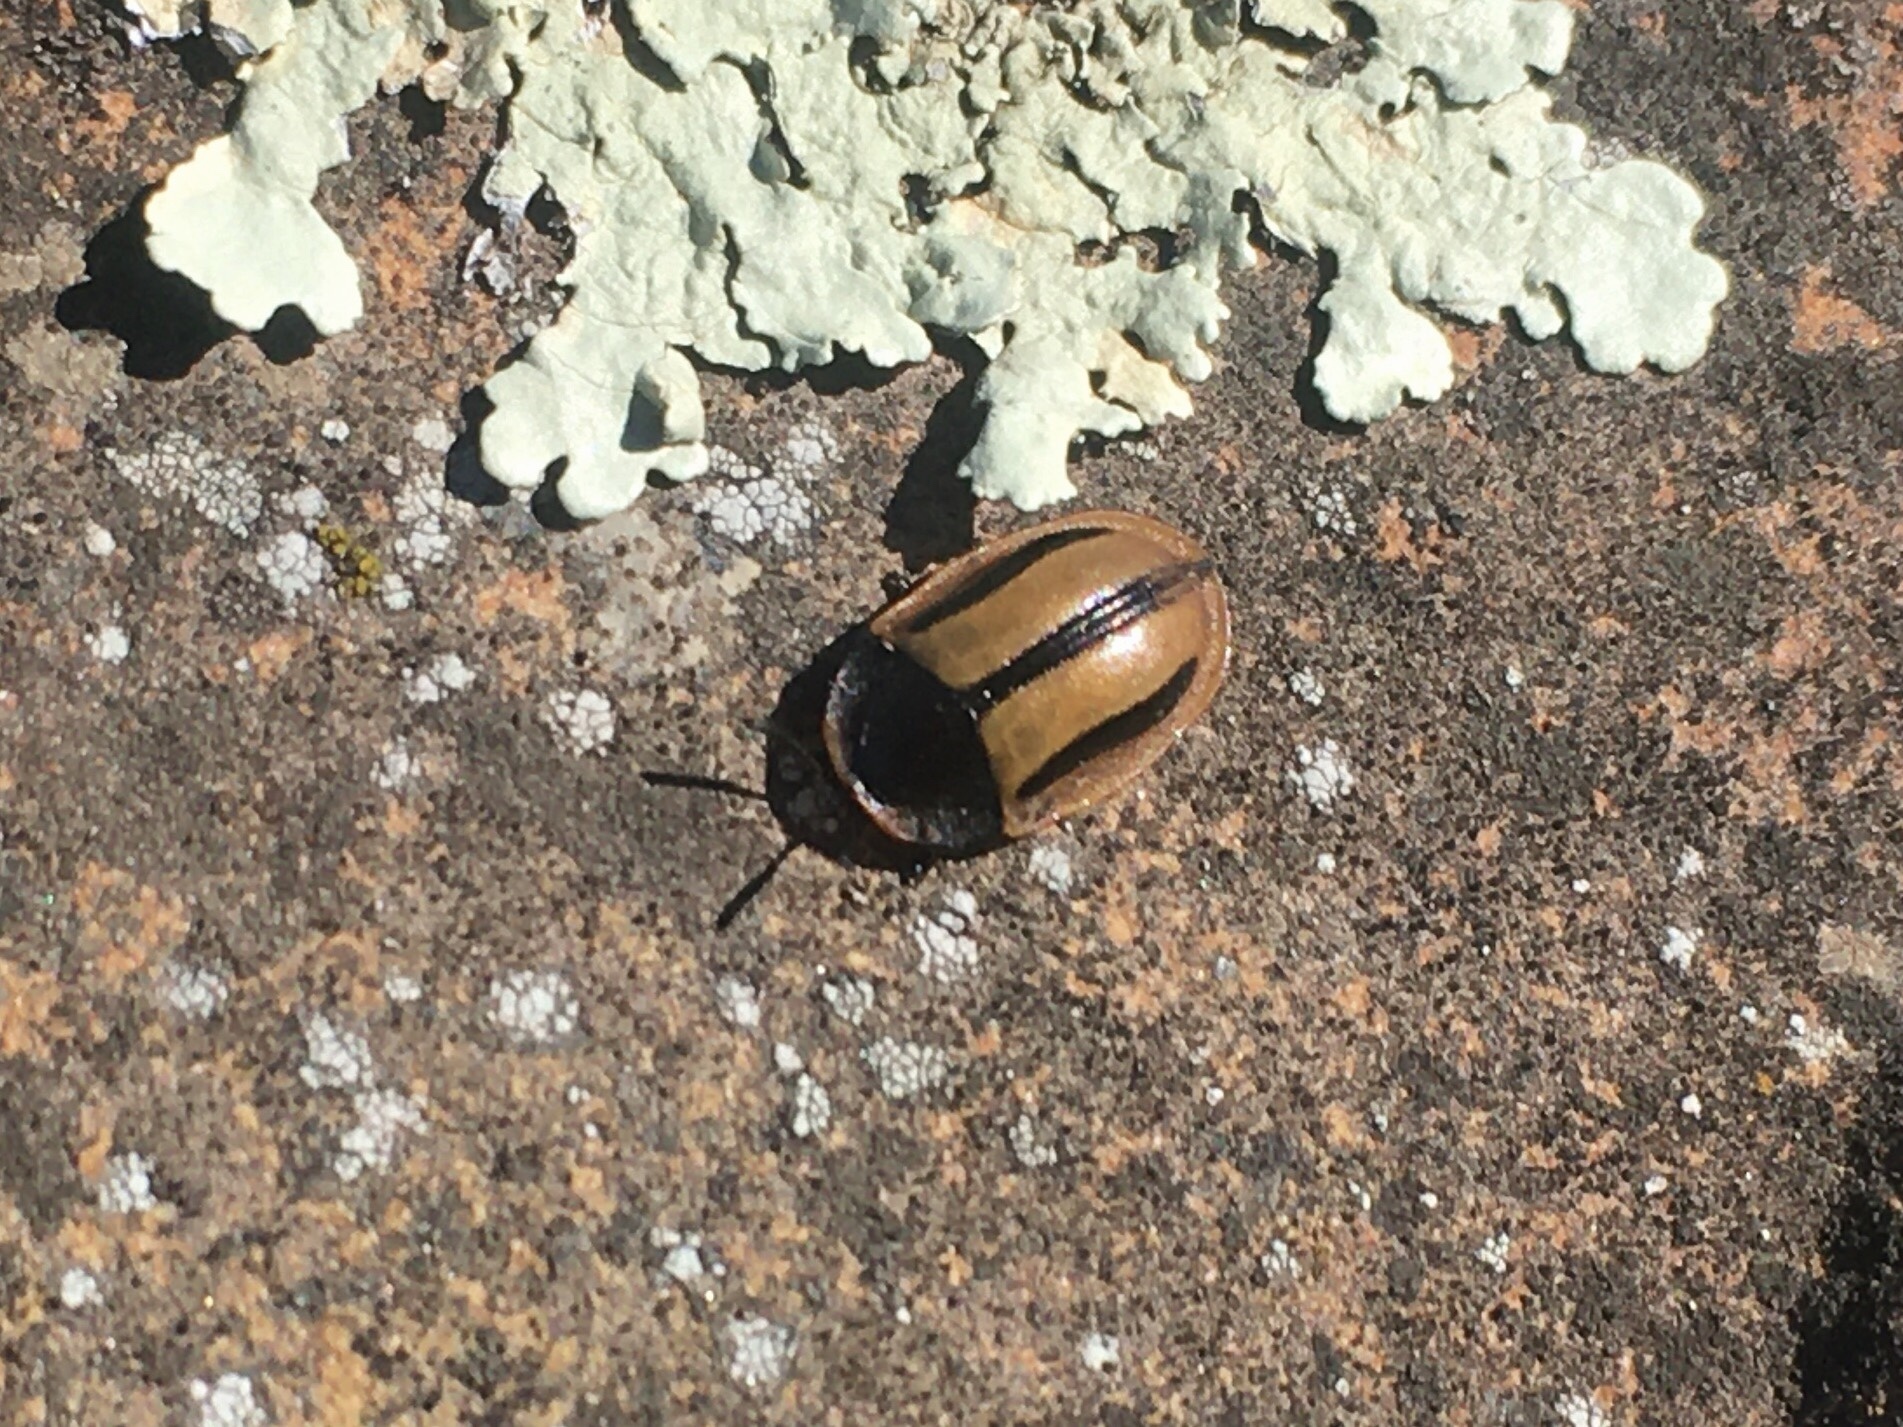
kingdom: Animalia
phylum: Arthropoda
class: Insecta
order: Coleoptera
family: Chrysomelidae
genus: Poecilaspidella
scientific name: Poecilaspidella vittifera
